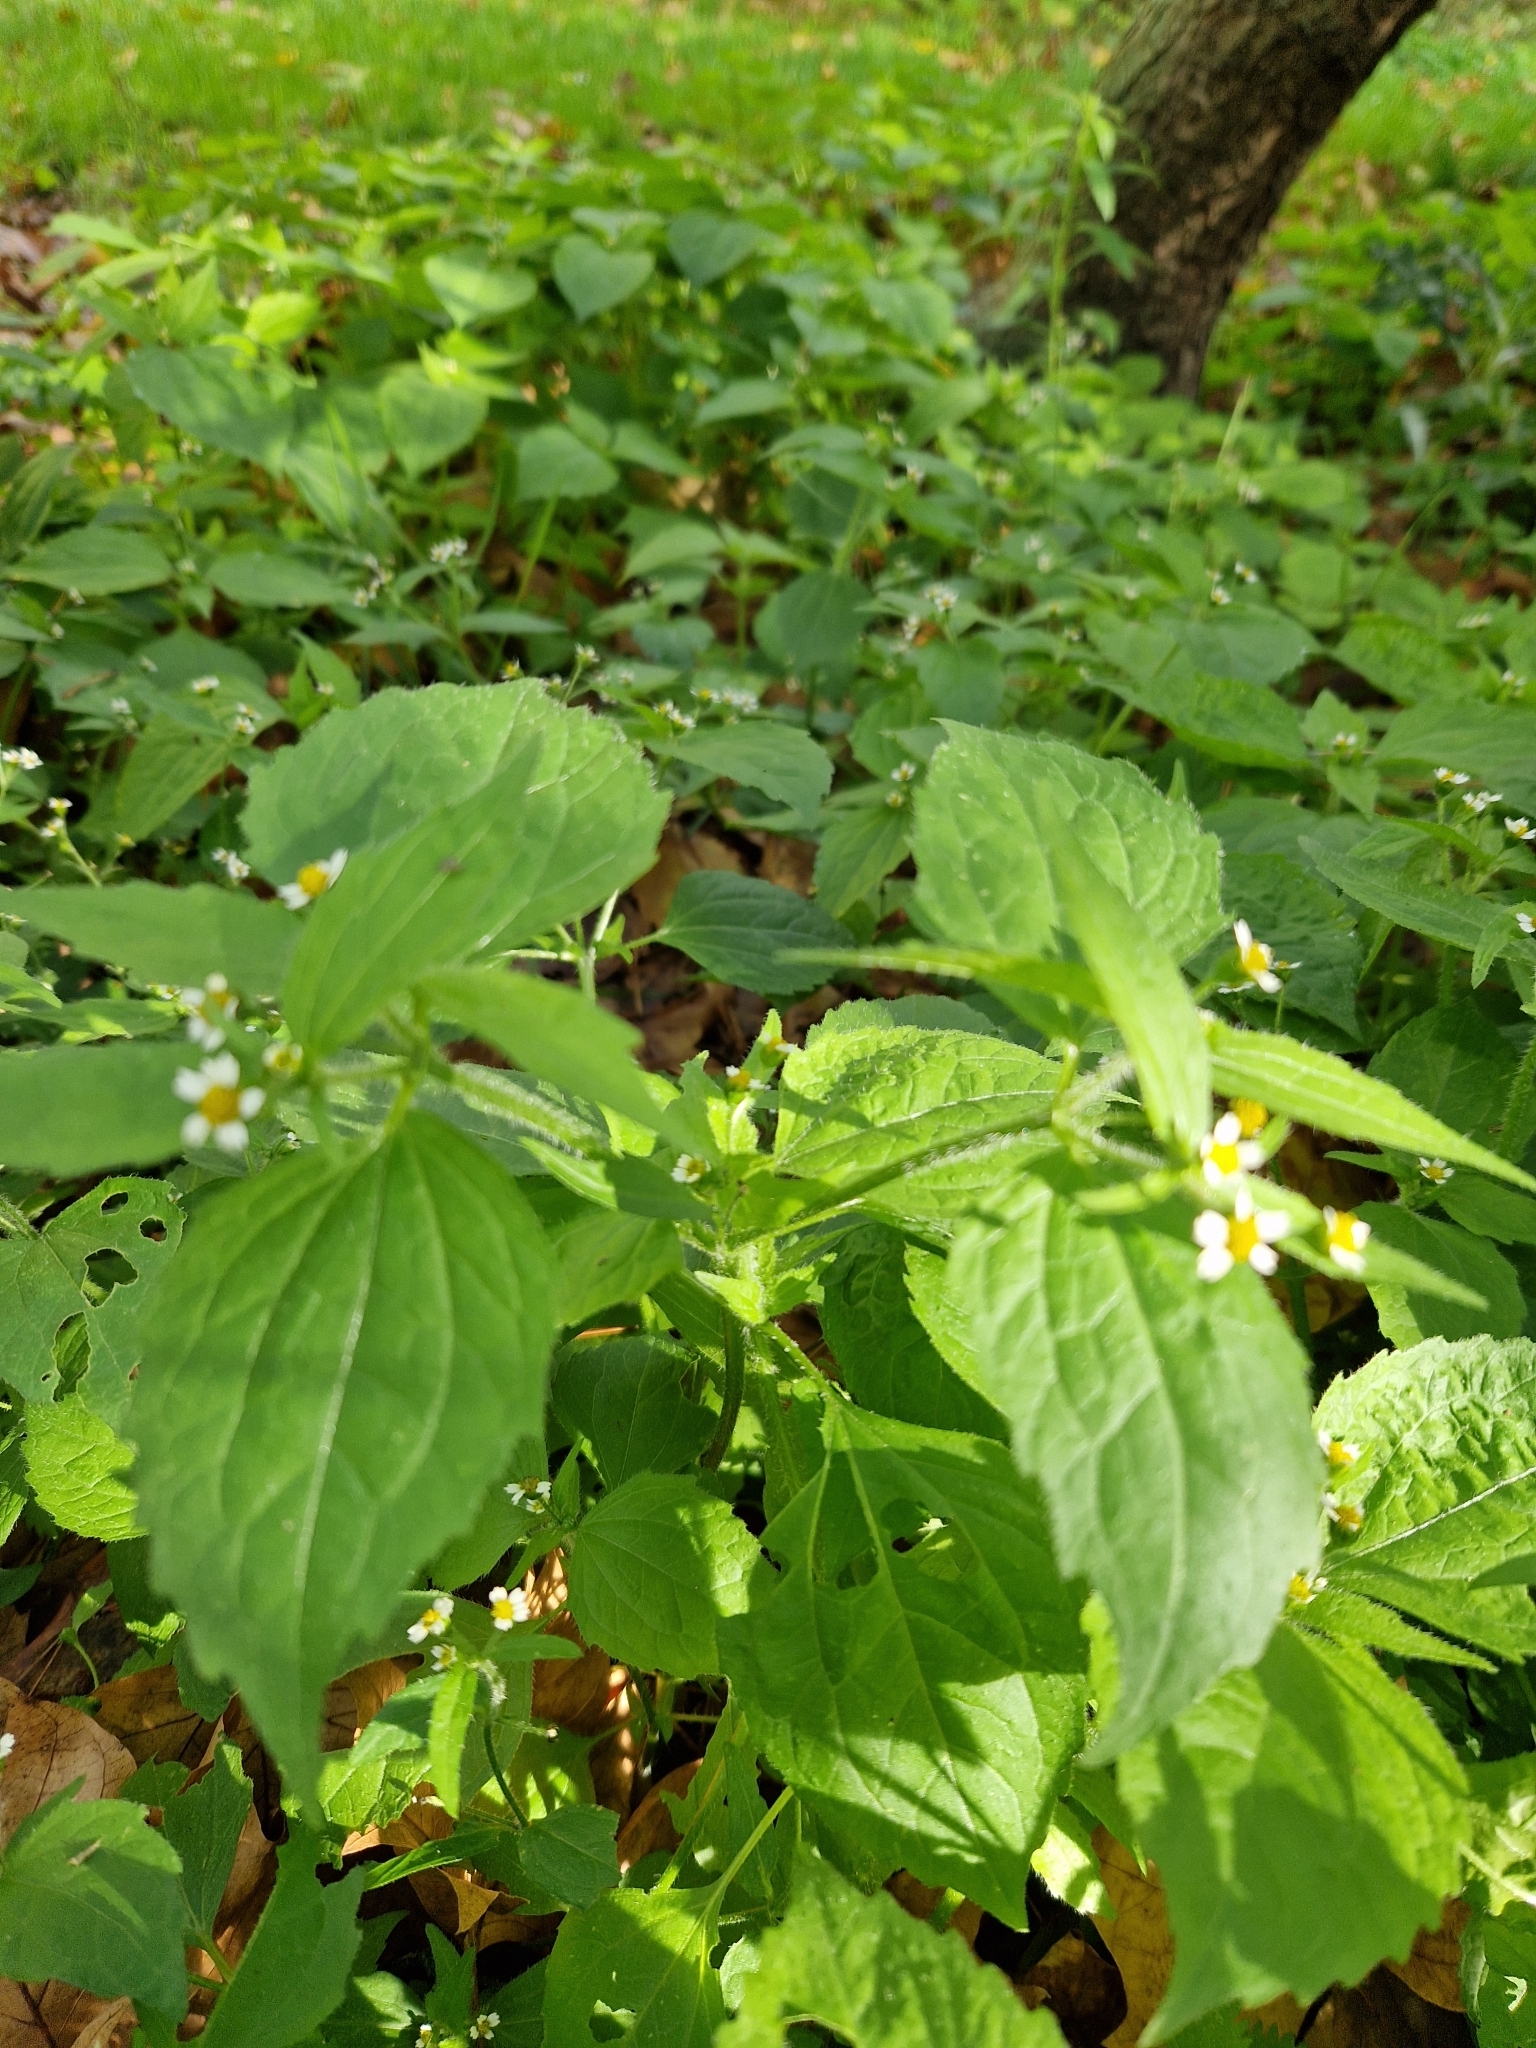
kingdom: Plantae
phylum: Tracheophyta
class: Magnoliopsida
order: Asterales
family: Asteraceae
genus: Galinsoga
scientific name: Galinsoga quadriradiata
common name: Shaggy soldier
